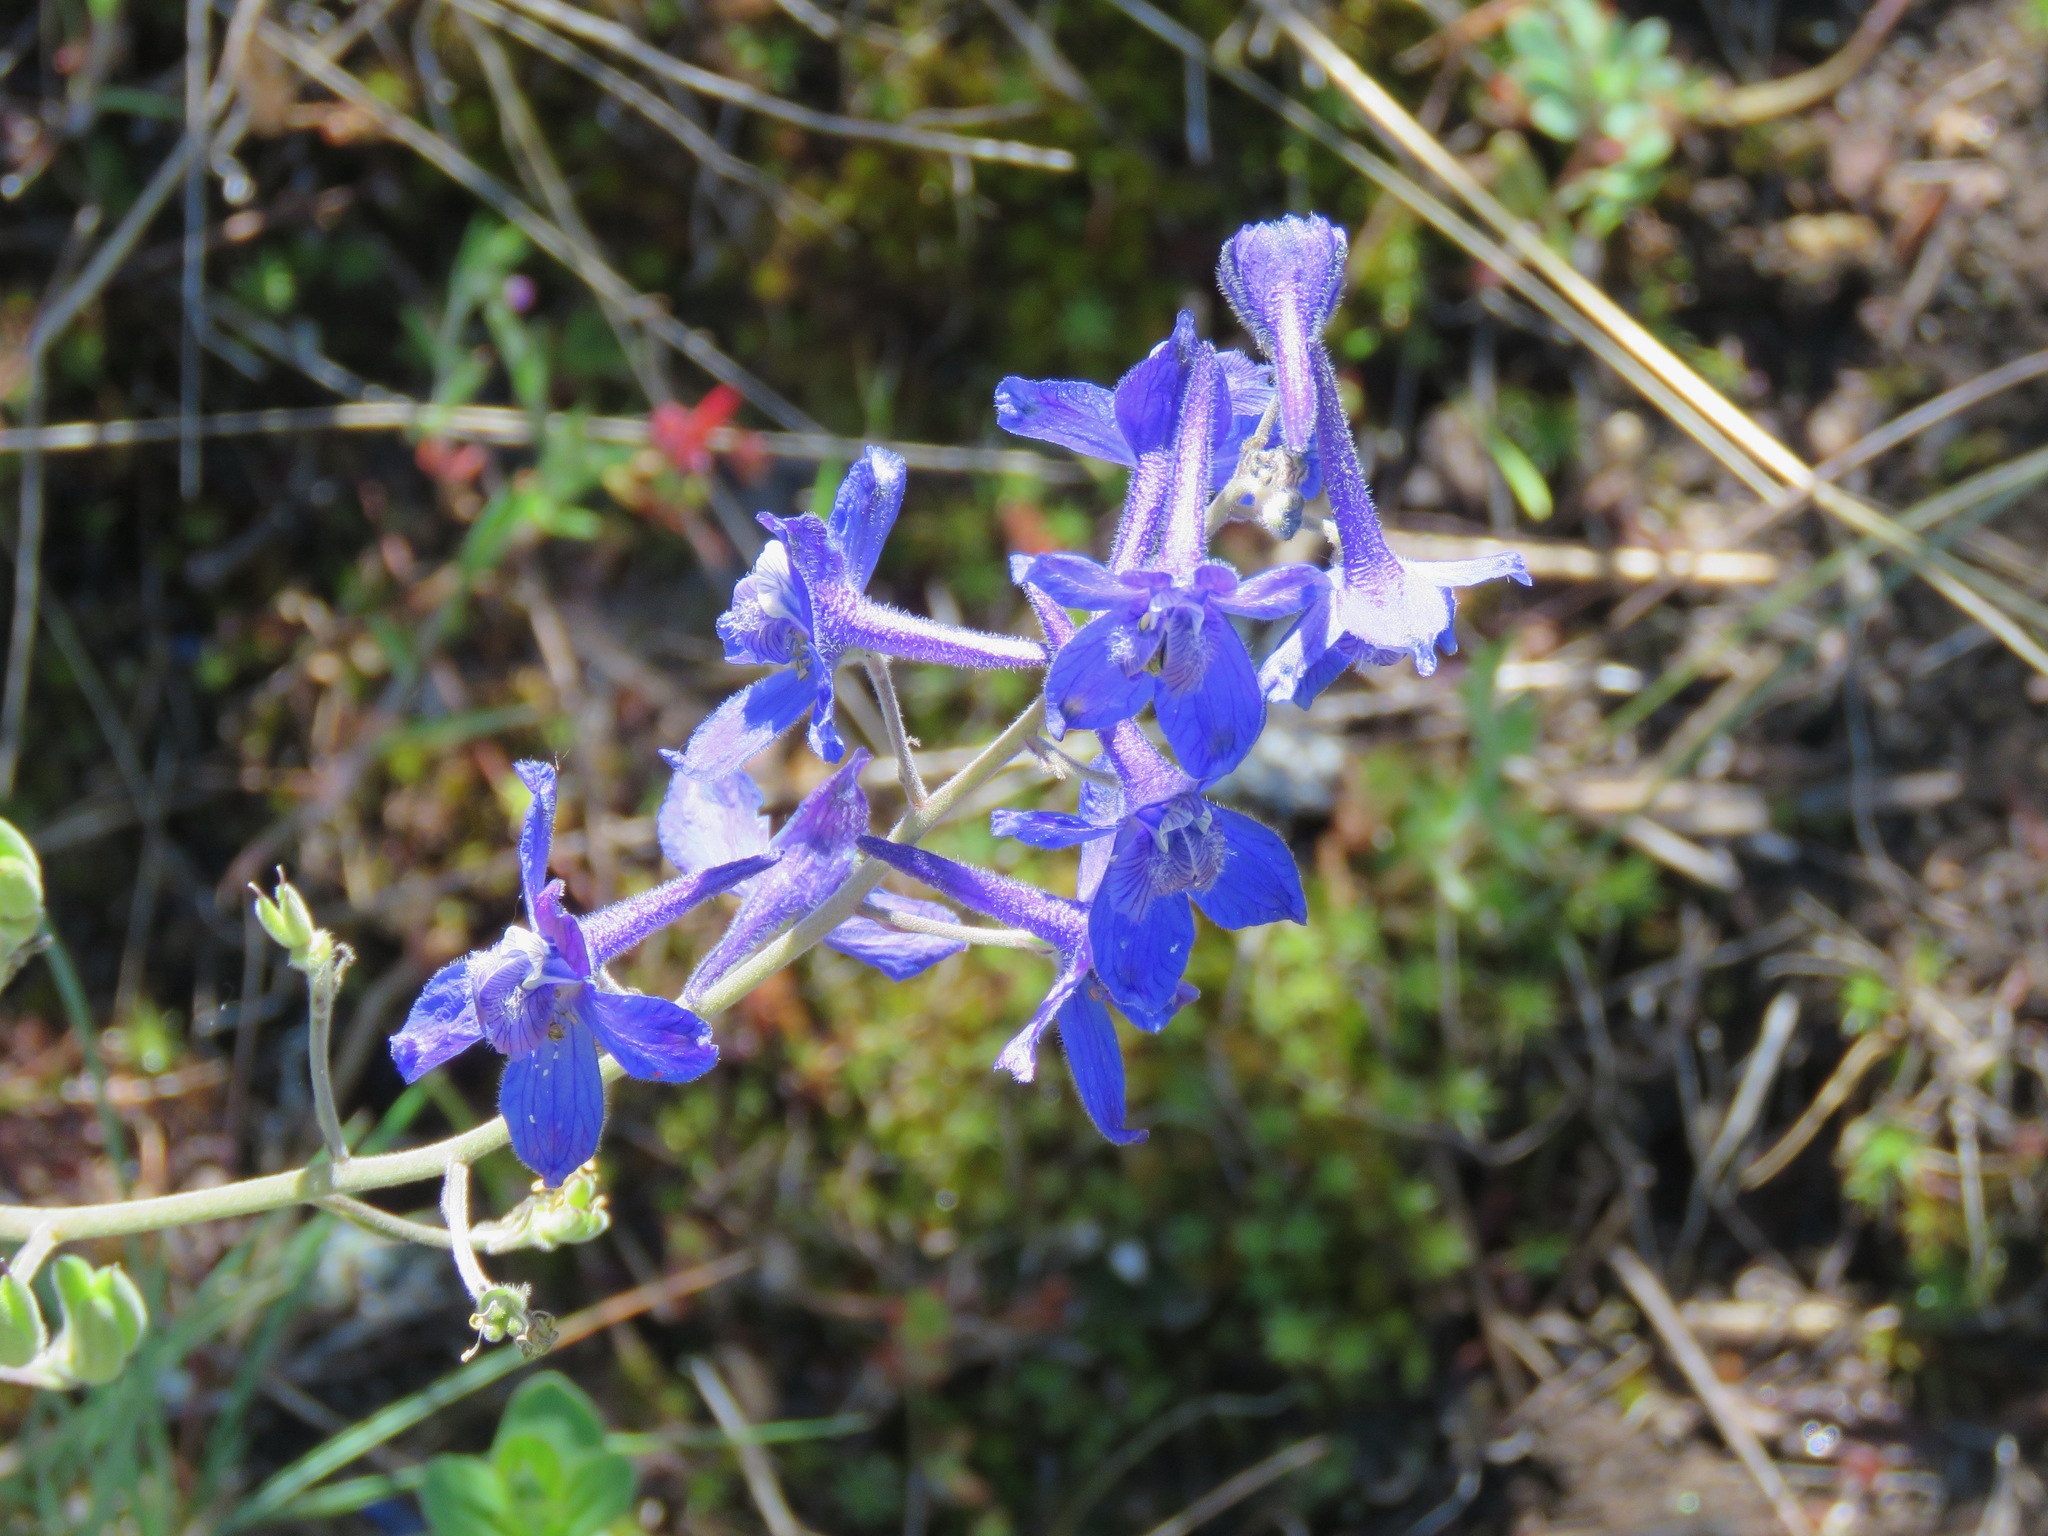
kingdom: Plantae
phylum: Tracheophyta
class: Magnoliopsida
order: Ranunculales
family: Ranunculaceae
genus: Delphinium
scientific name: Delphinium nuttallianum
